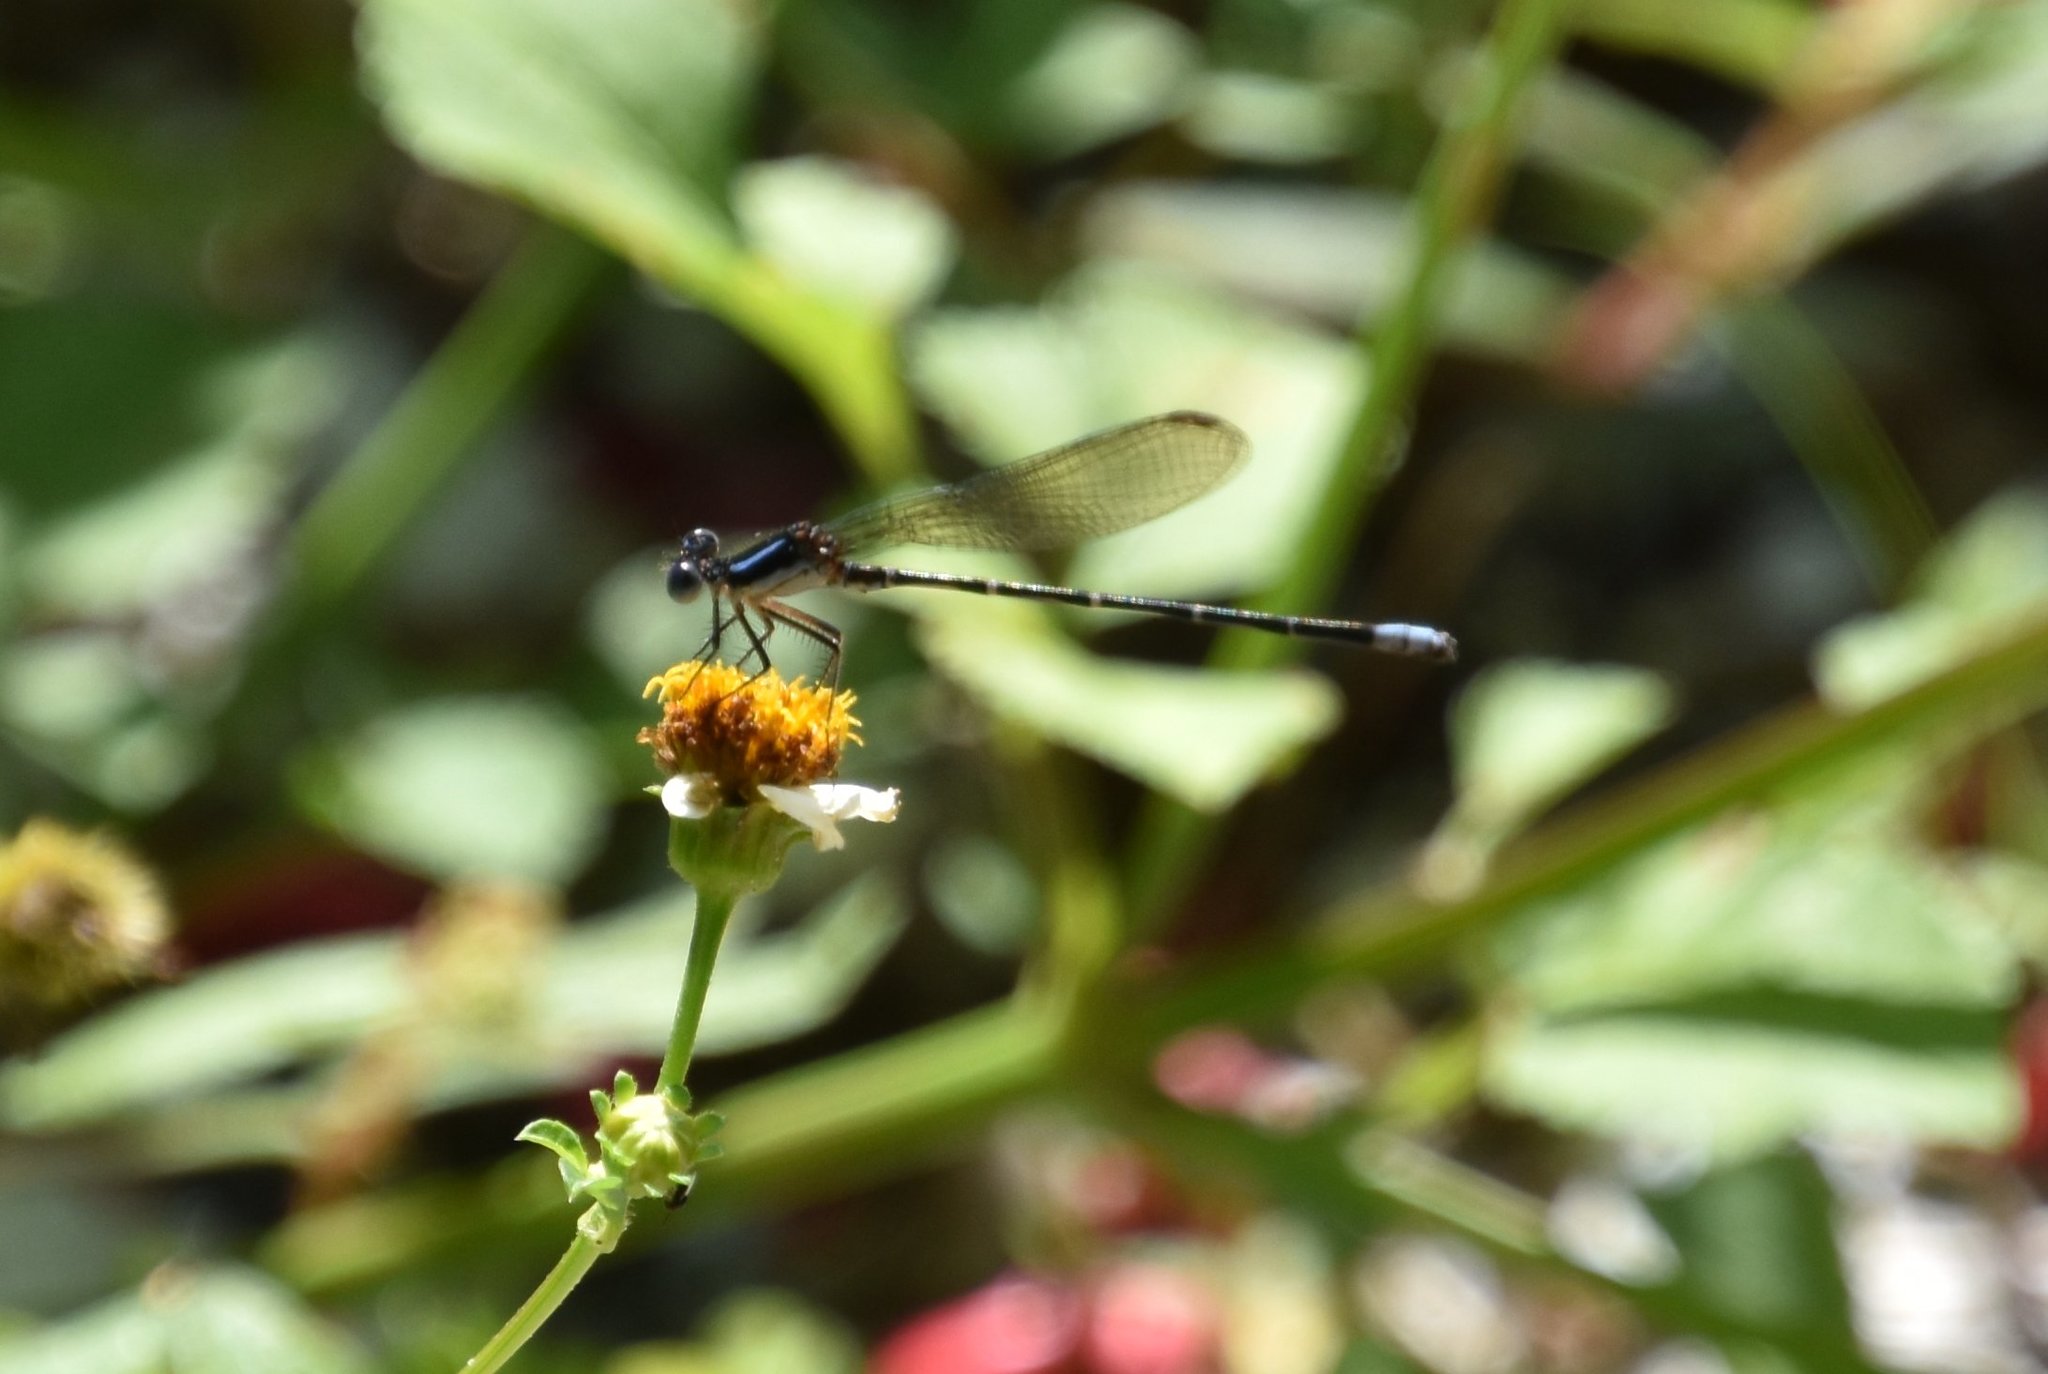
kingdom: Animalia
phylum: Arthropoda
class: Insecta
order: Odonata
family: Coenagrionidae
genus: Argia
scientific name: Argia sedula
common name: Blue-ringed dancer
